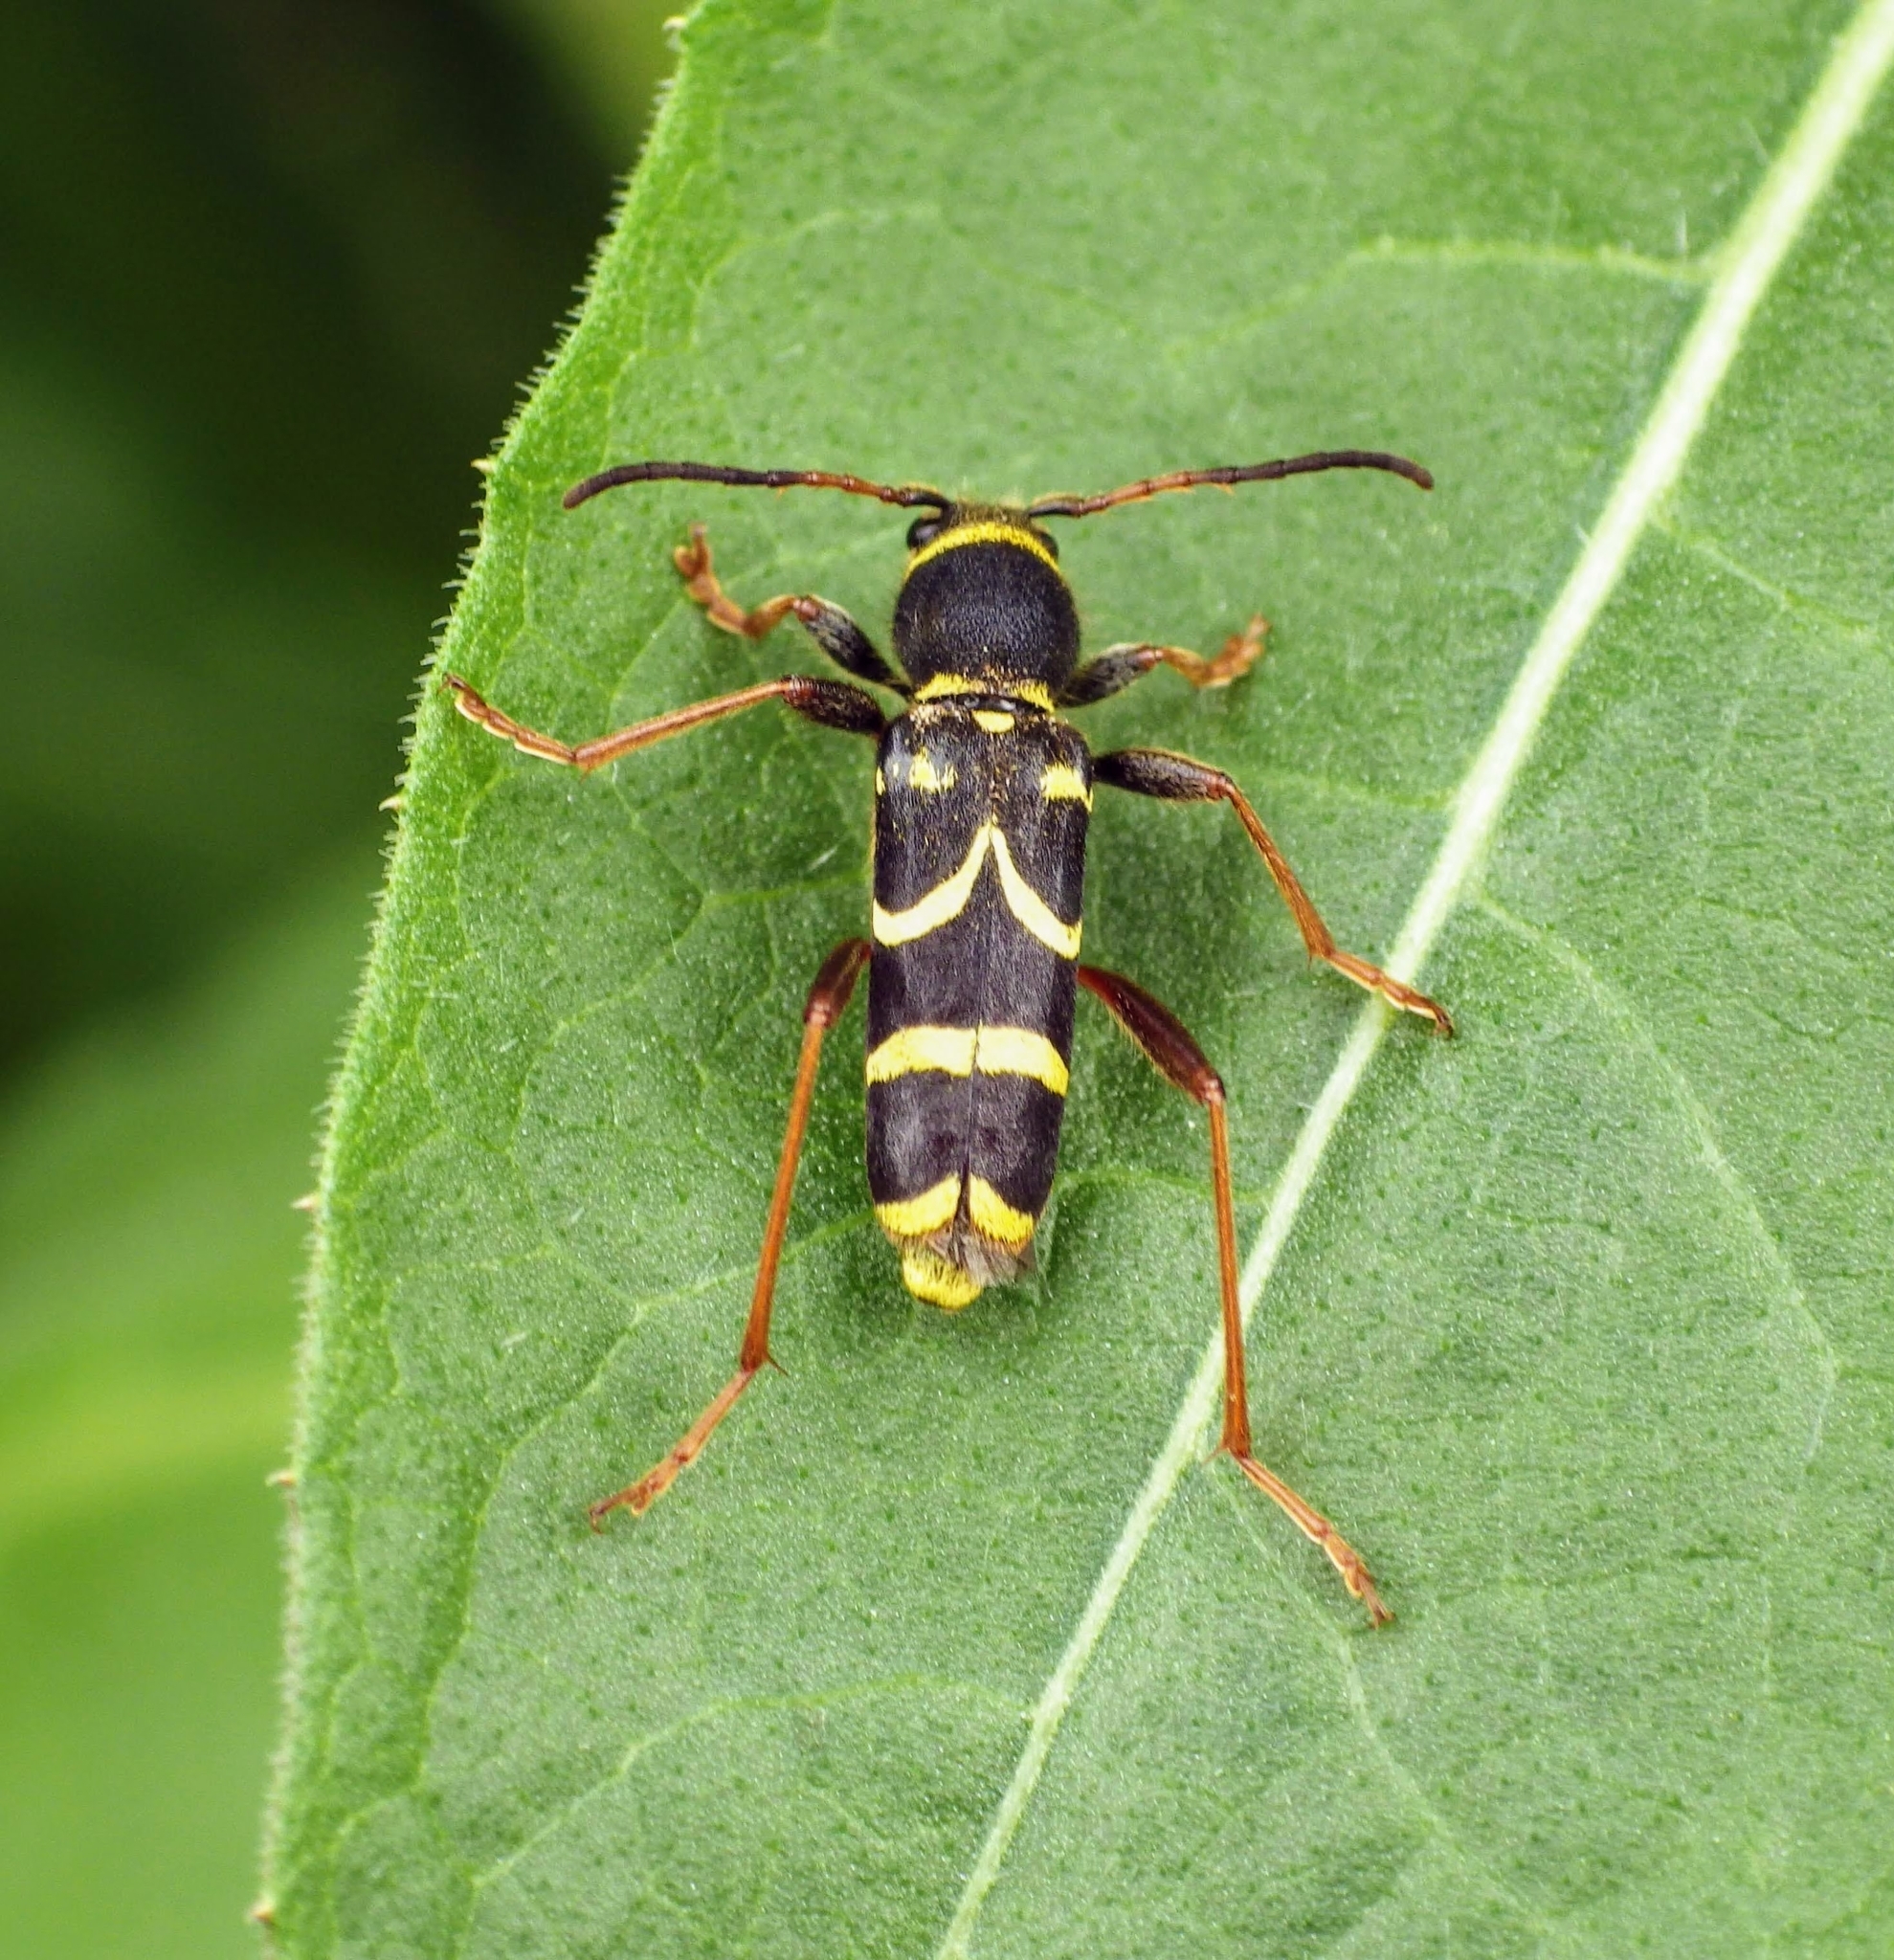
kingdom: Animalia
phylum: Arthropoda
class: Insecta
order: Coleoptera
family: Cerambycidae
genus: Clytus
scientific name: Clytus arietis
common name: Wasp beetle
